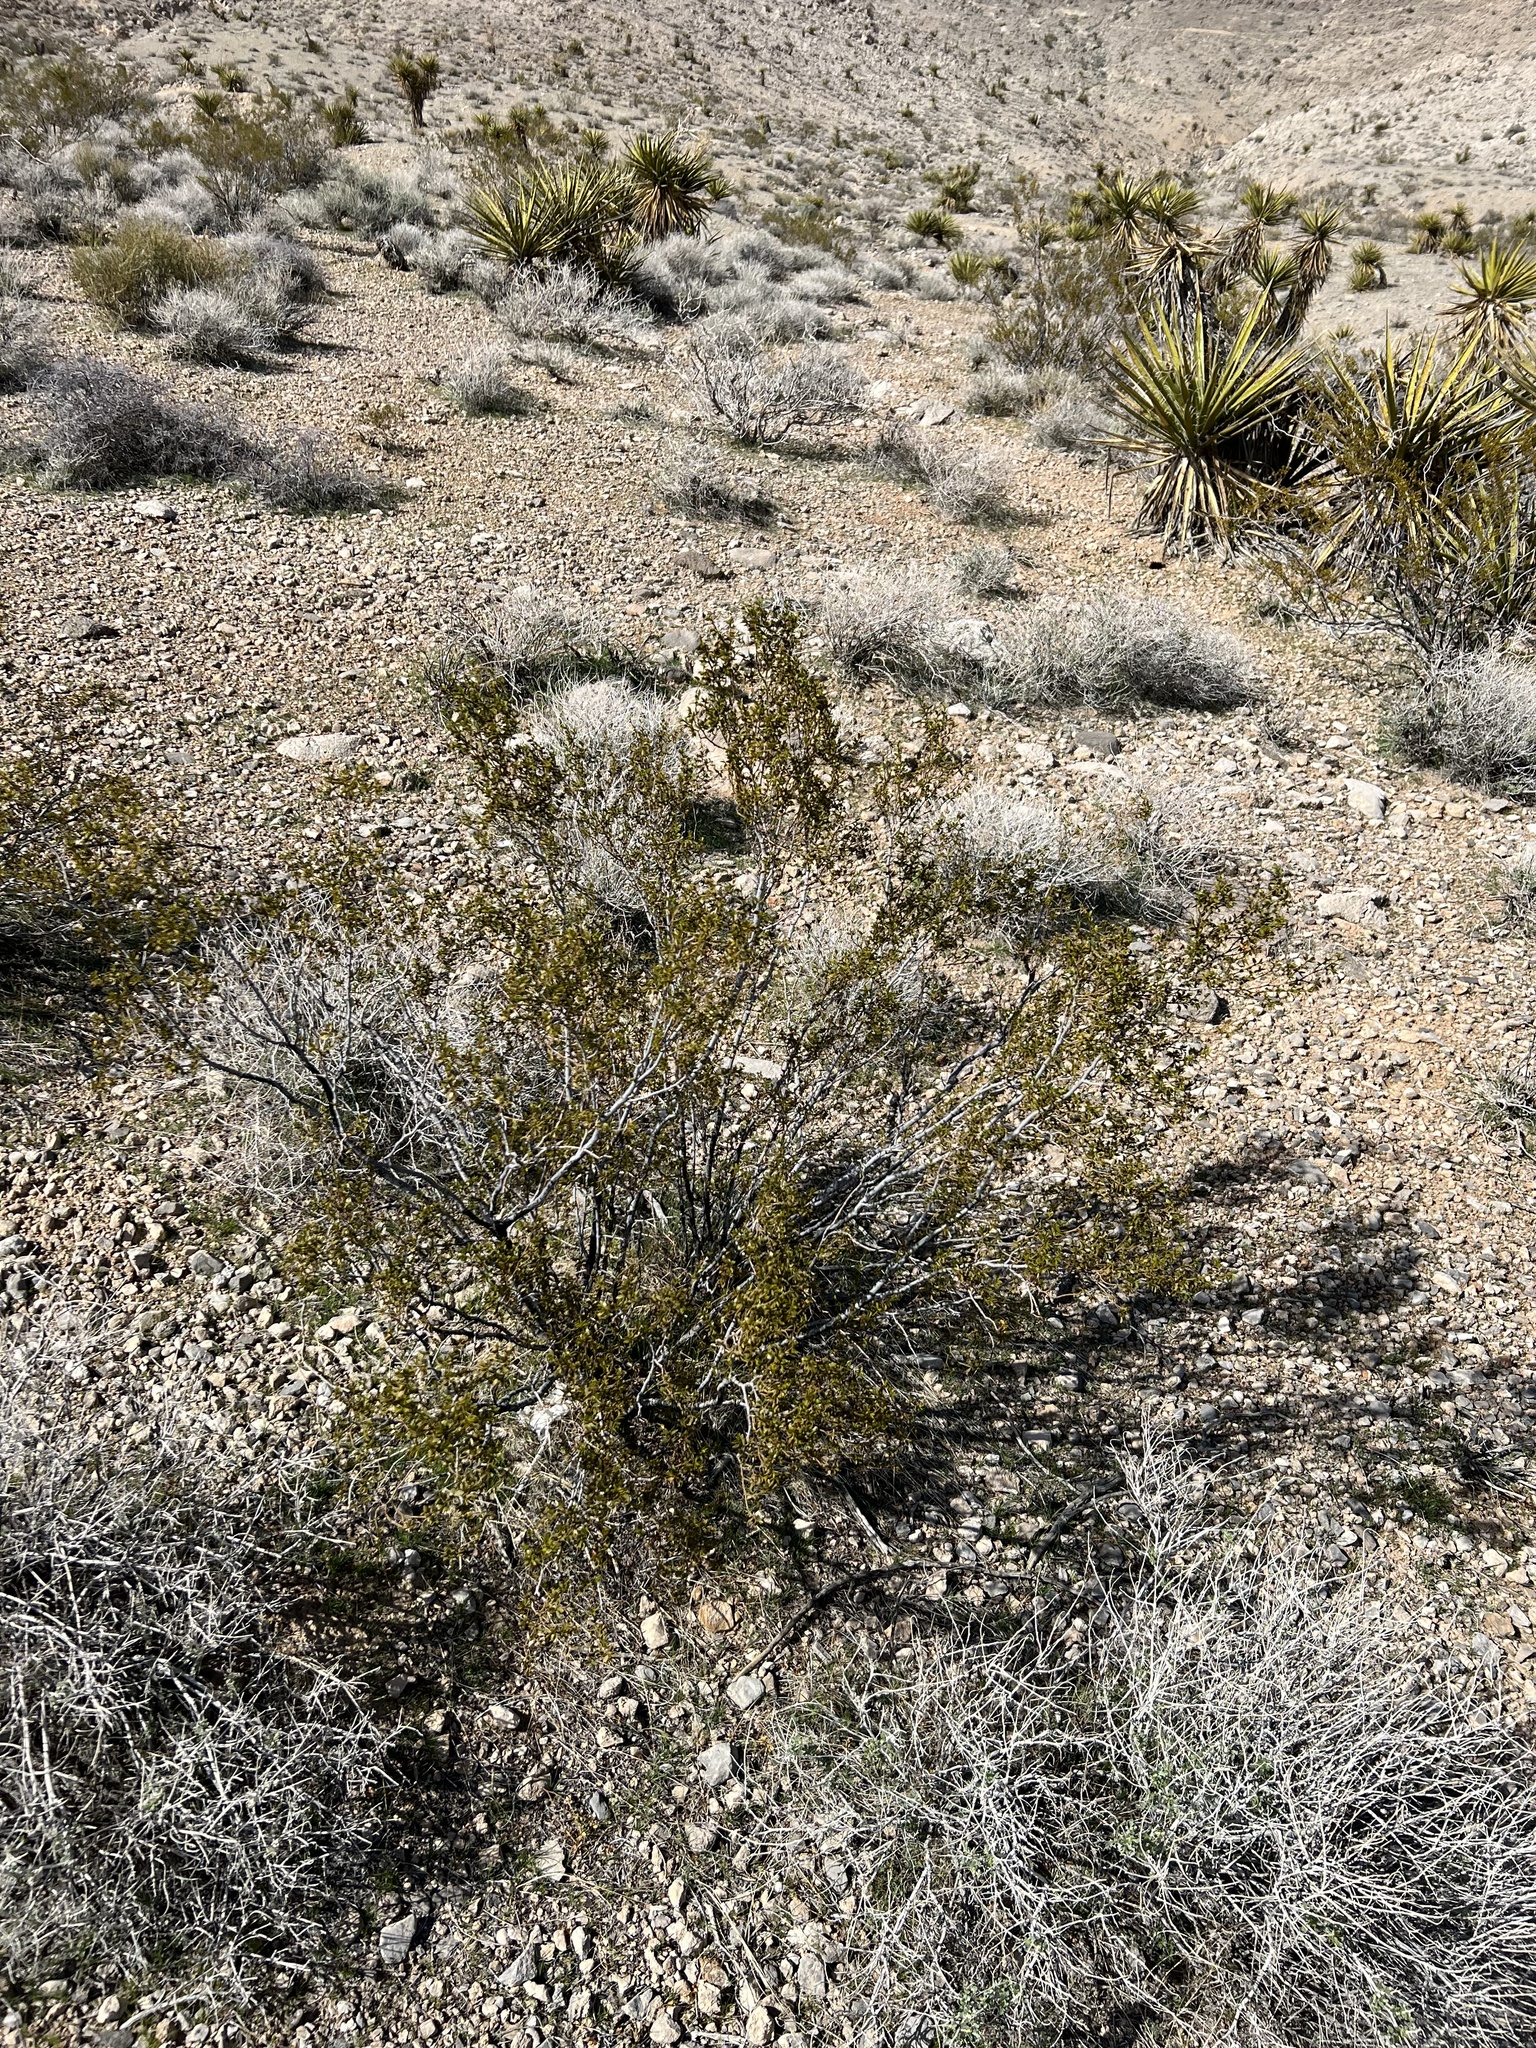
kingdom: Plantae
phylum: Tracheophyta
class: Magnoliopsida
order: Zygophyllales
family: Zygophyllaceae
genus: Larrea
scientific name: Larrea tridentata
